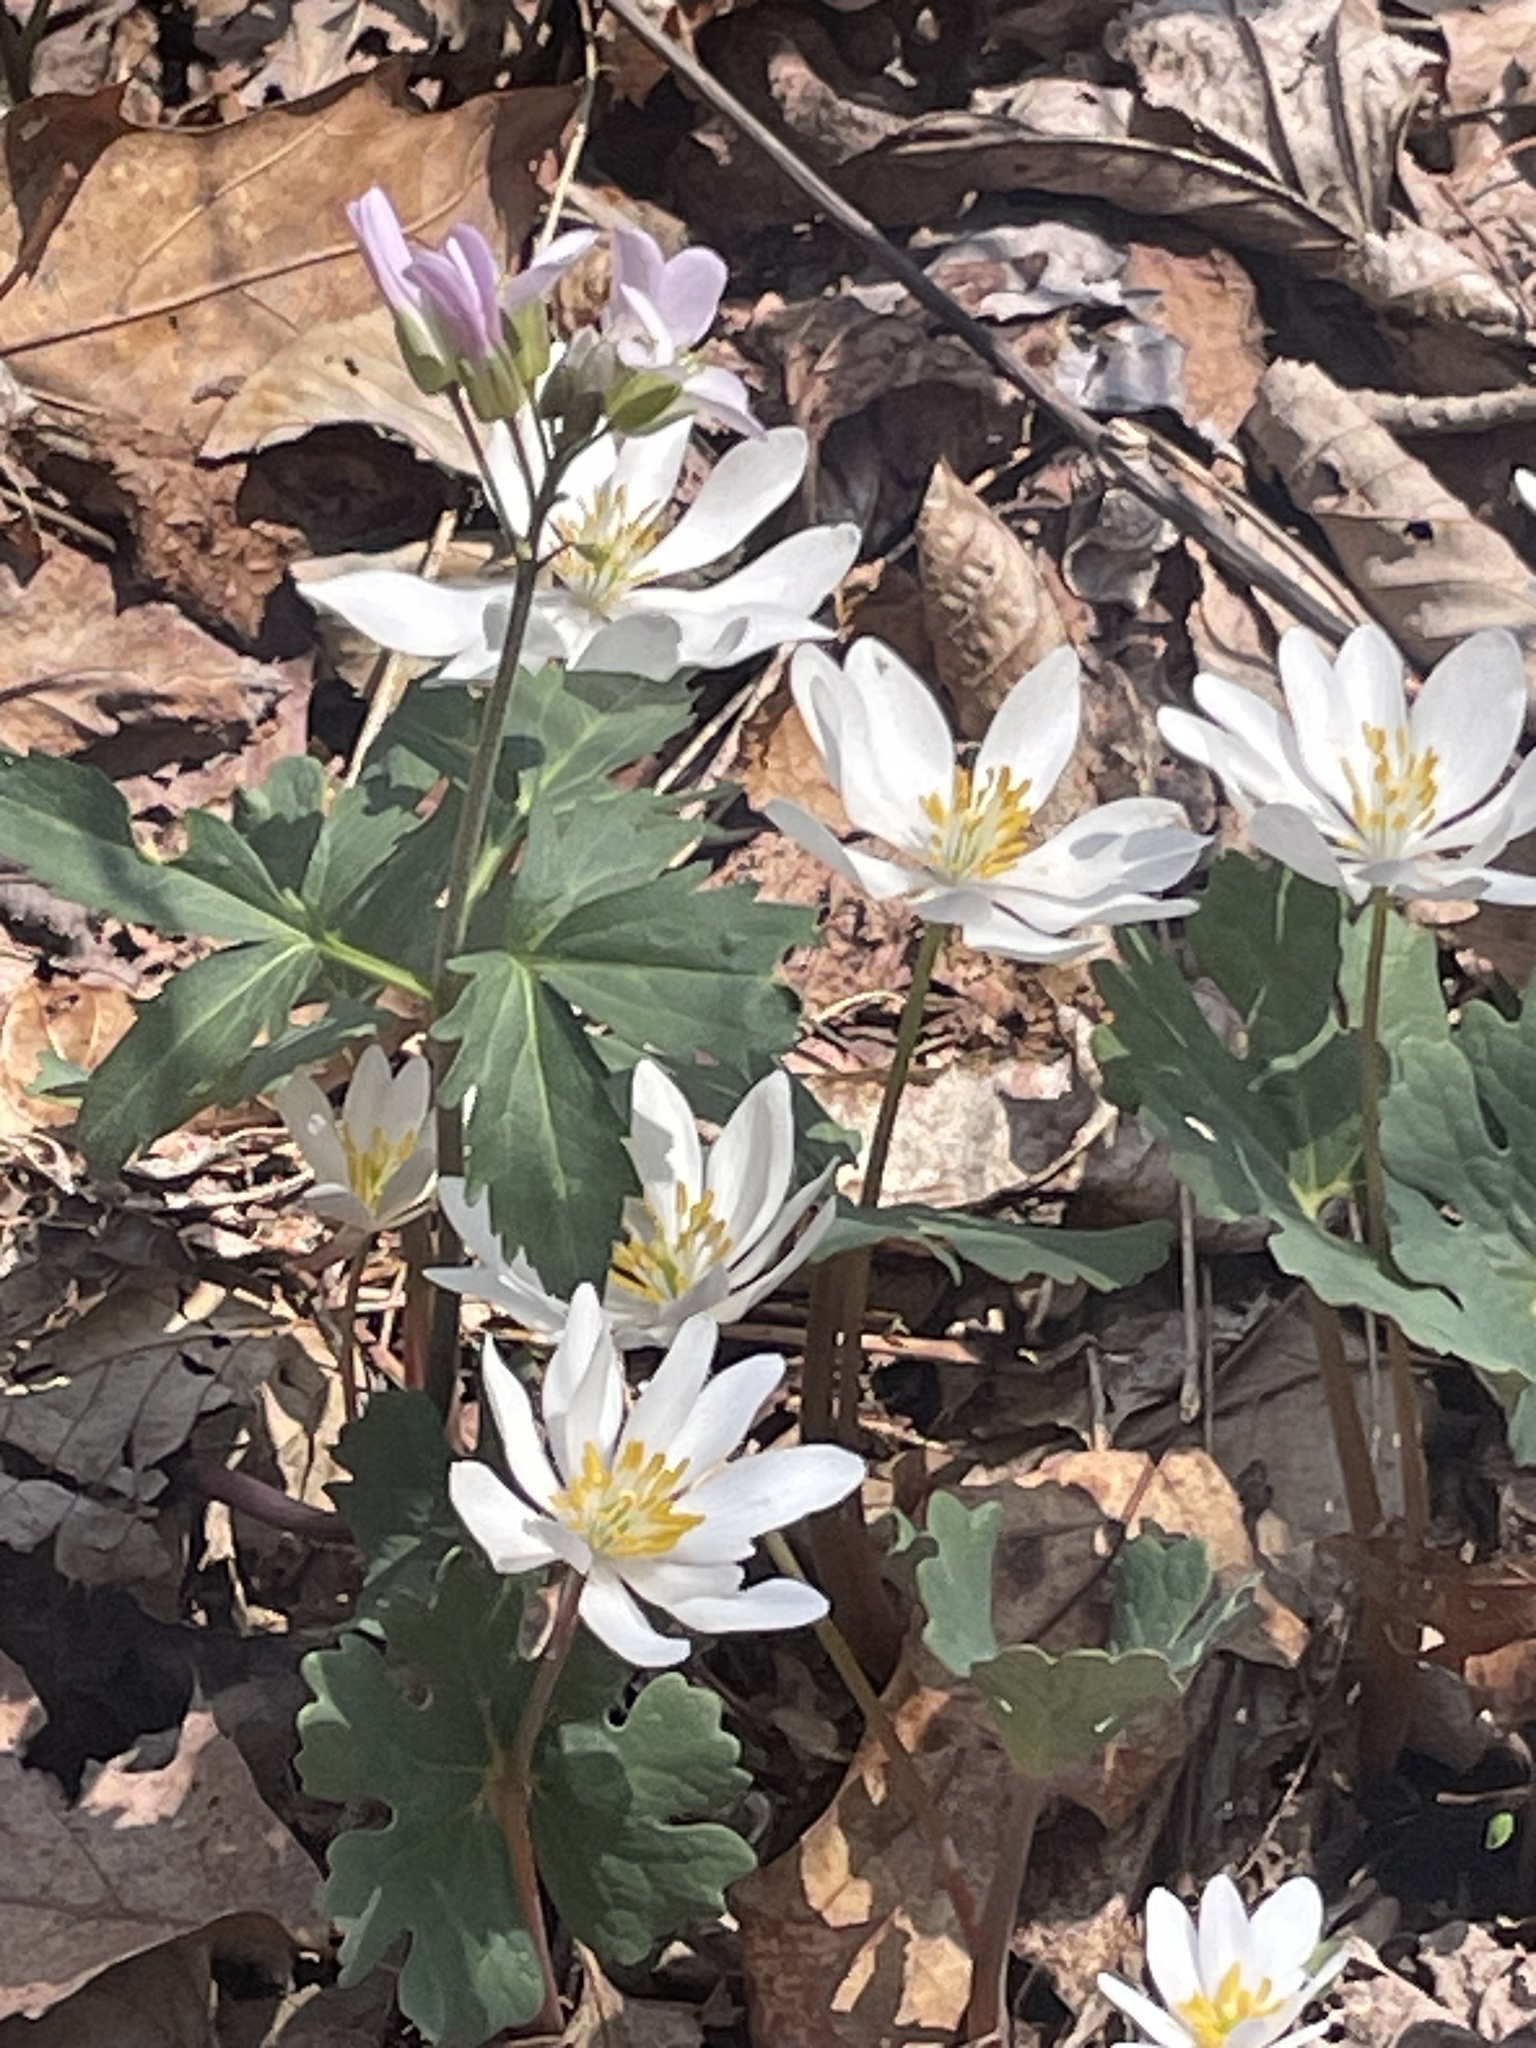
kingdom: Plantae
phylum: Tracheophyta
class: Magnoliopsida
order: Ranunculales
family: Papaveraceae
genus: Sanguinaria
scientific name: Sanguinaria canadensis
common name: Bloodroot
